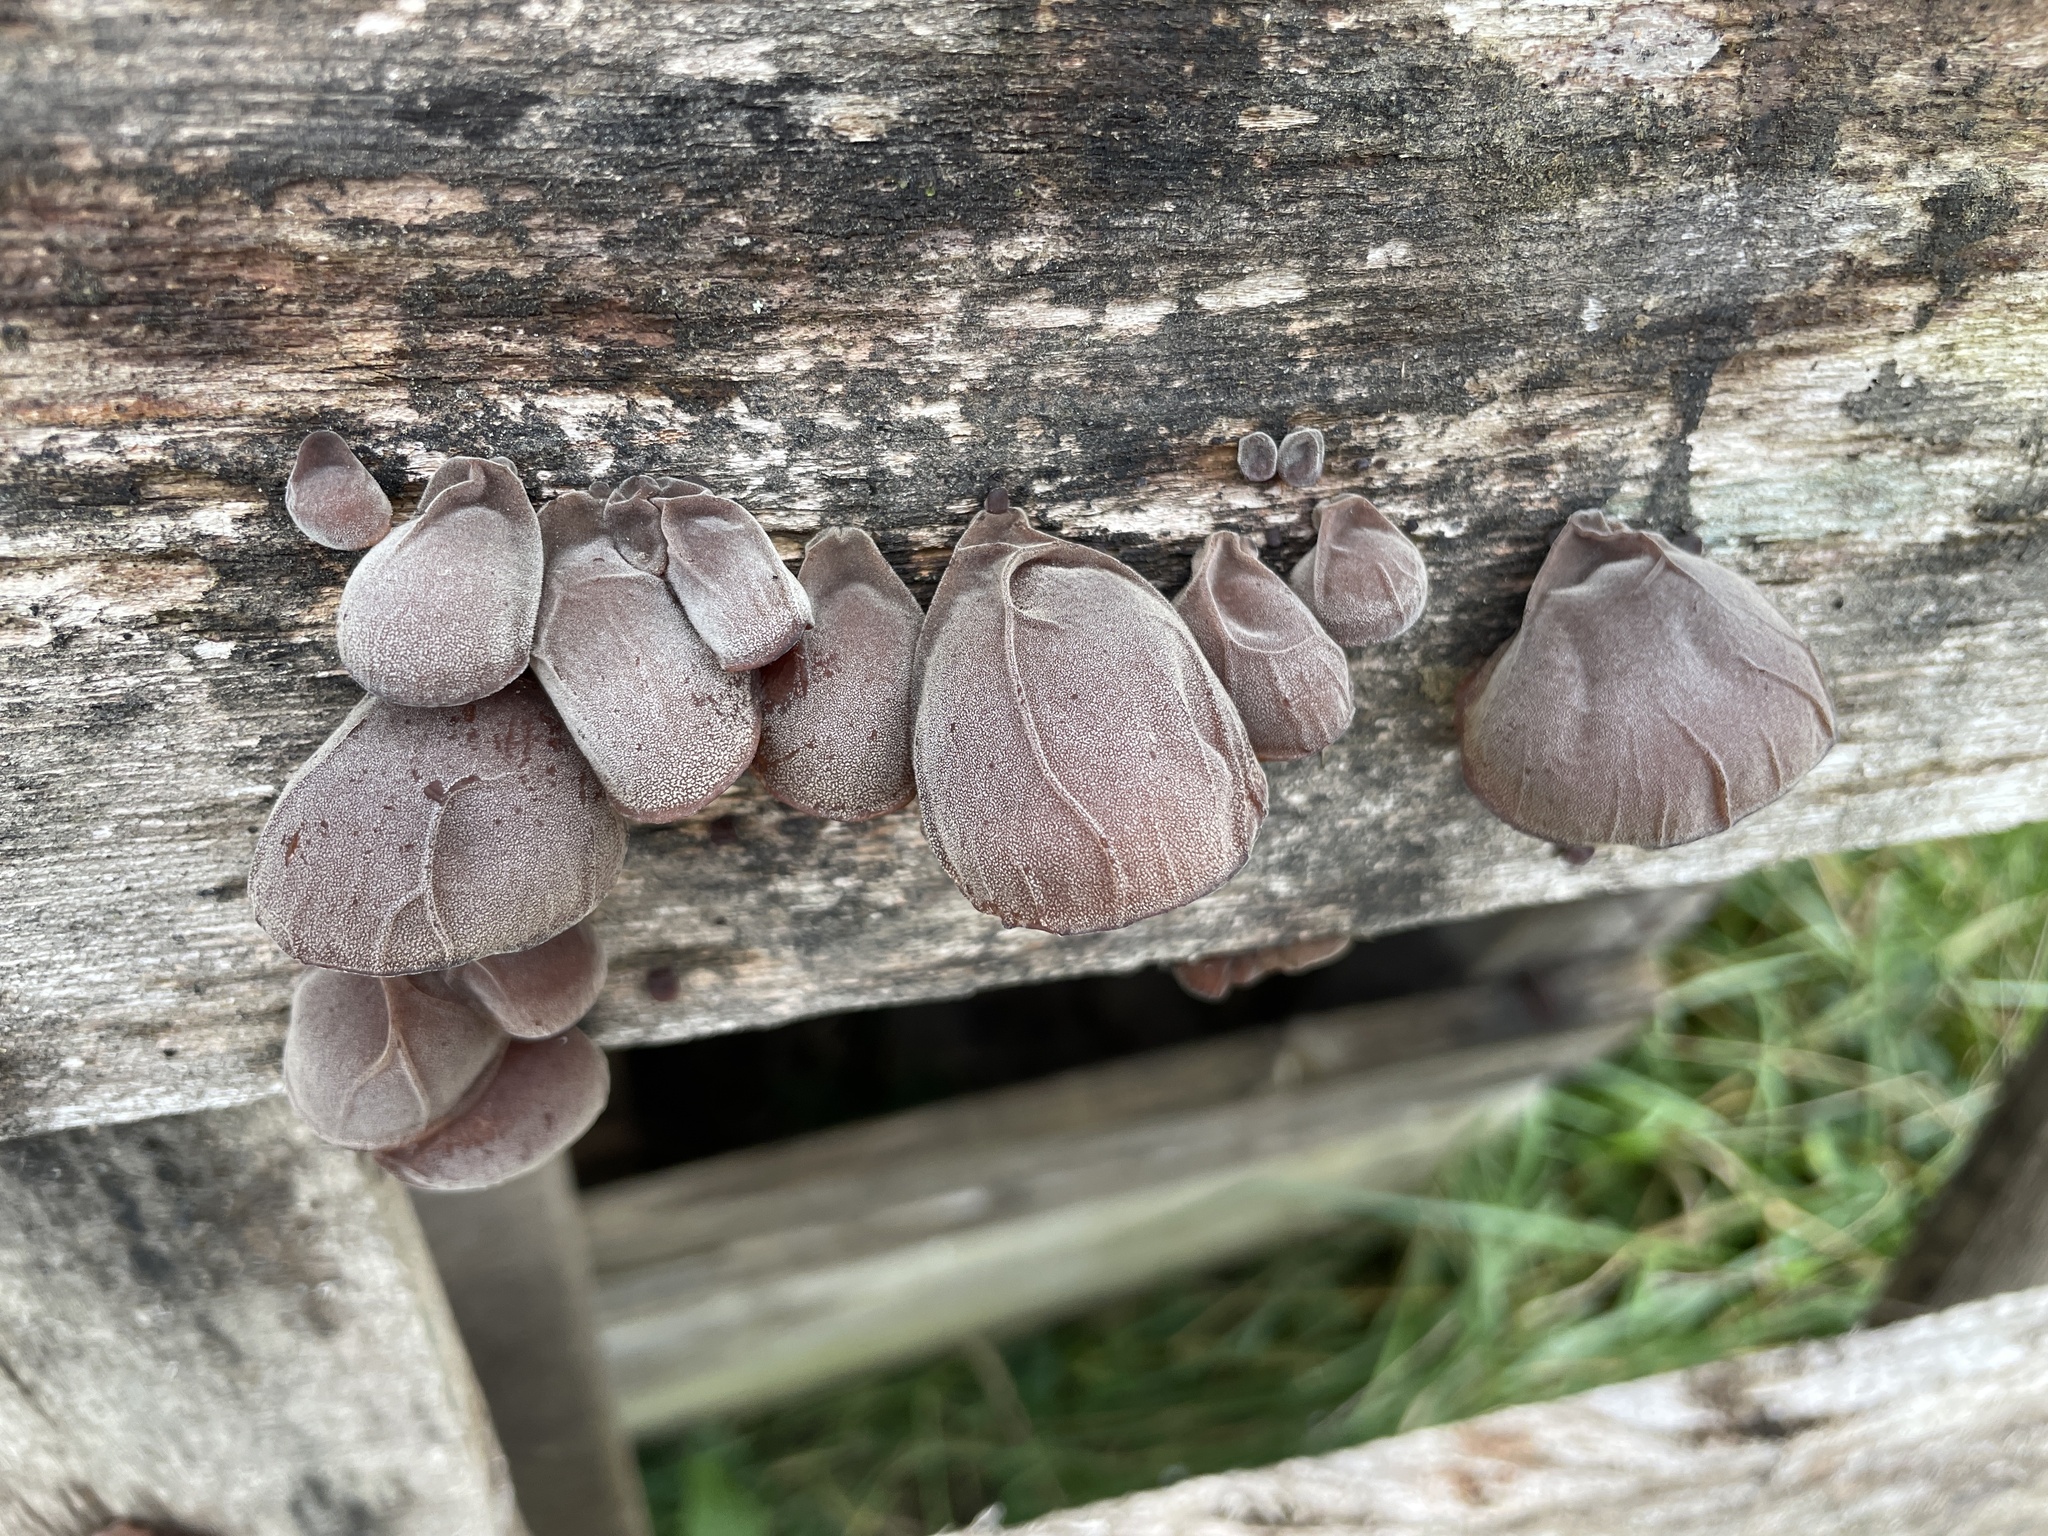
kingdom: Fungi
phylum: Basidiomycota
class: Agaricomycetes
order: Auriculariales
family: Auriculariaceae
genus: Auricularia
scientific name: Auricularia auricula-judae
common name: Jelly ear
